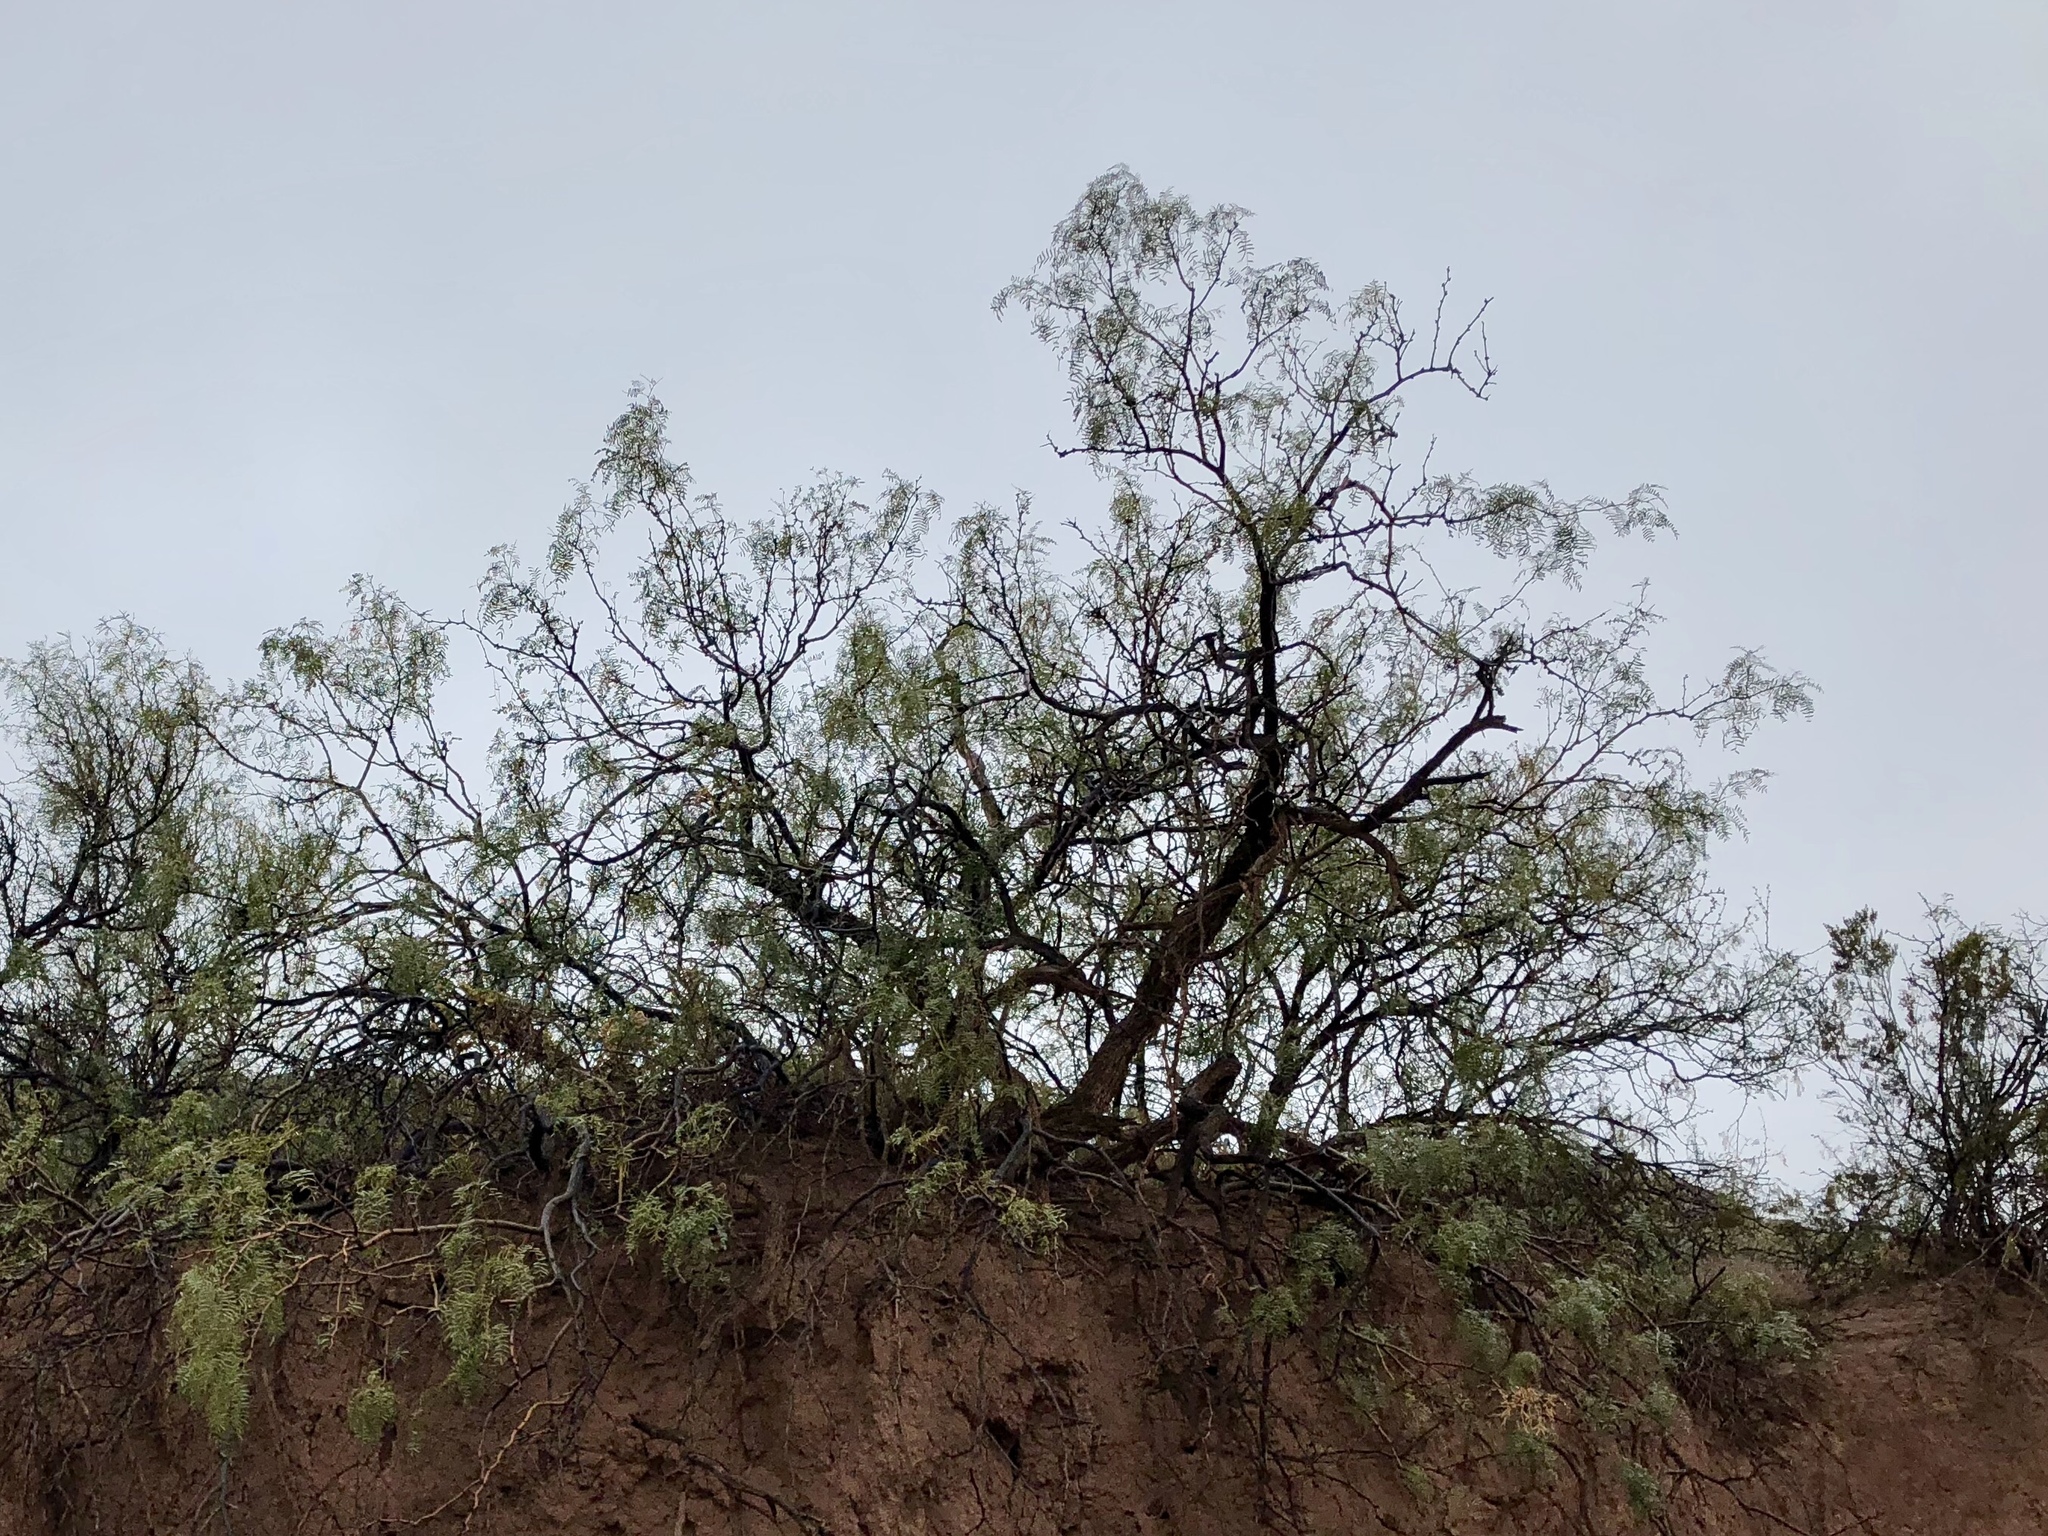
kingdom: Plantae
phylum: Tracheophyta
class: Magnoliopsida
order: Fabales
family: Fabaceae
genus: Prosopis
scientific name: Prosopis glandulosa
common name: Honey mesquite
